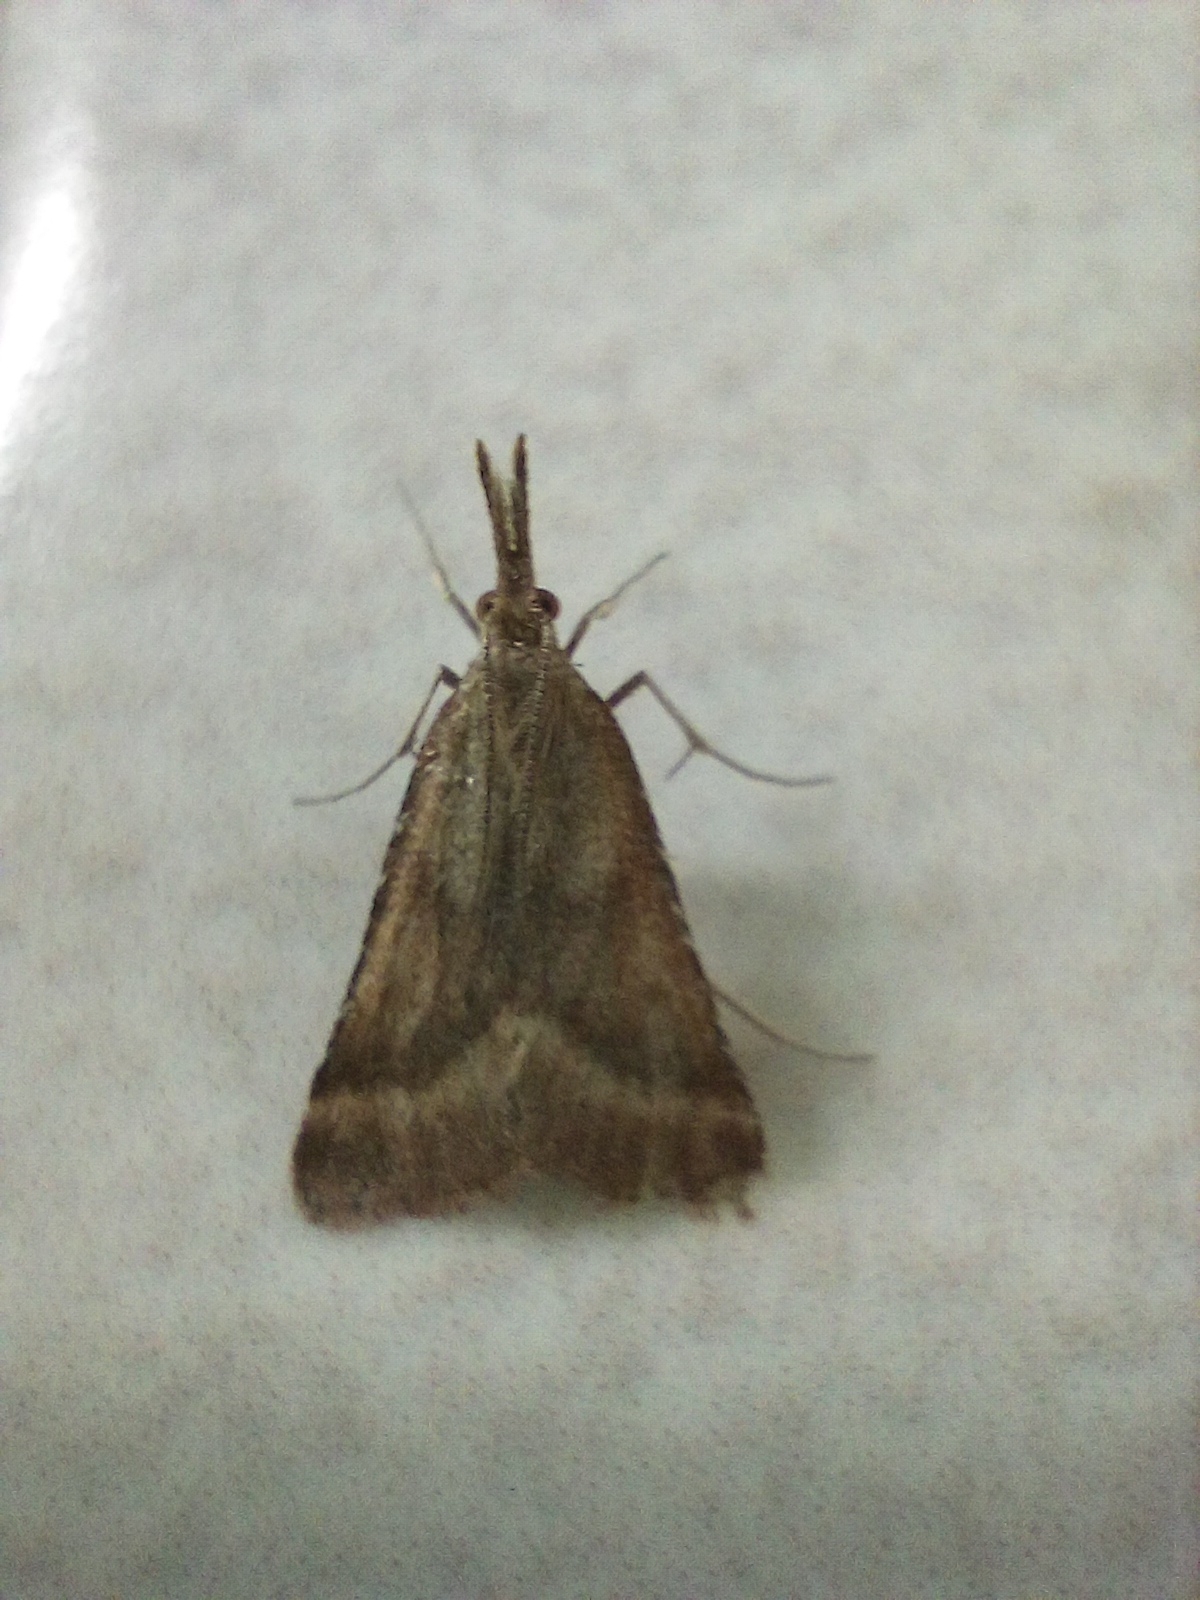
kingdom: Animalia
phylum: Arthropoda
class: Insecta
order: Lepidoptera
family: Pyralidae
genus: Synaphe
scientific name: Synaphe punctalis
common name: Long-legged tabby
